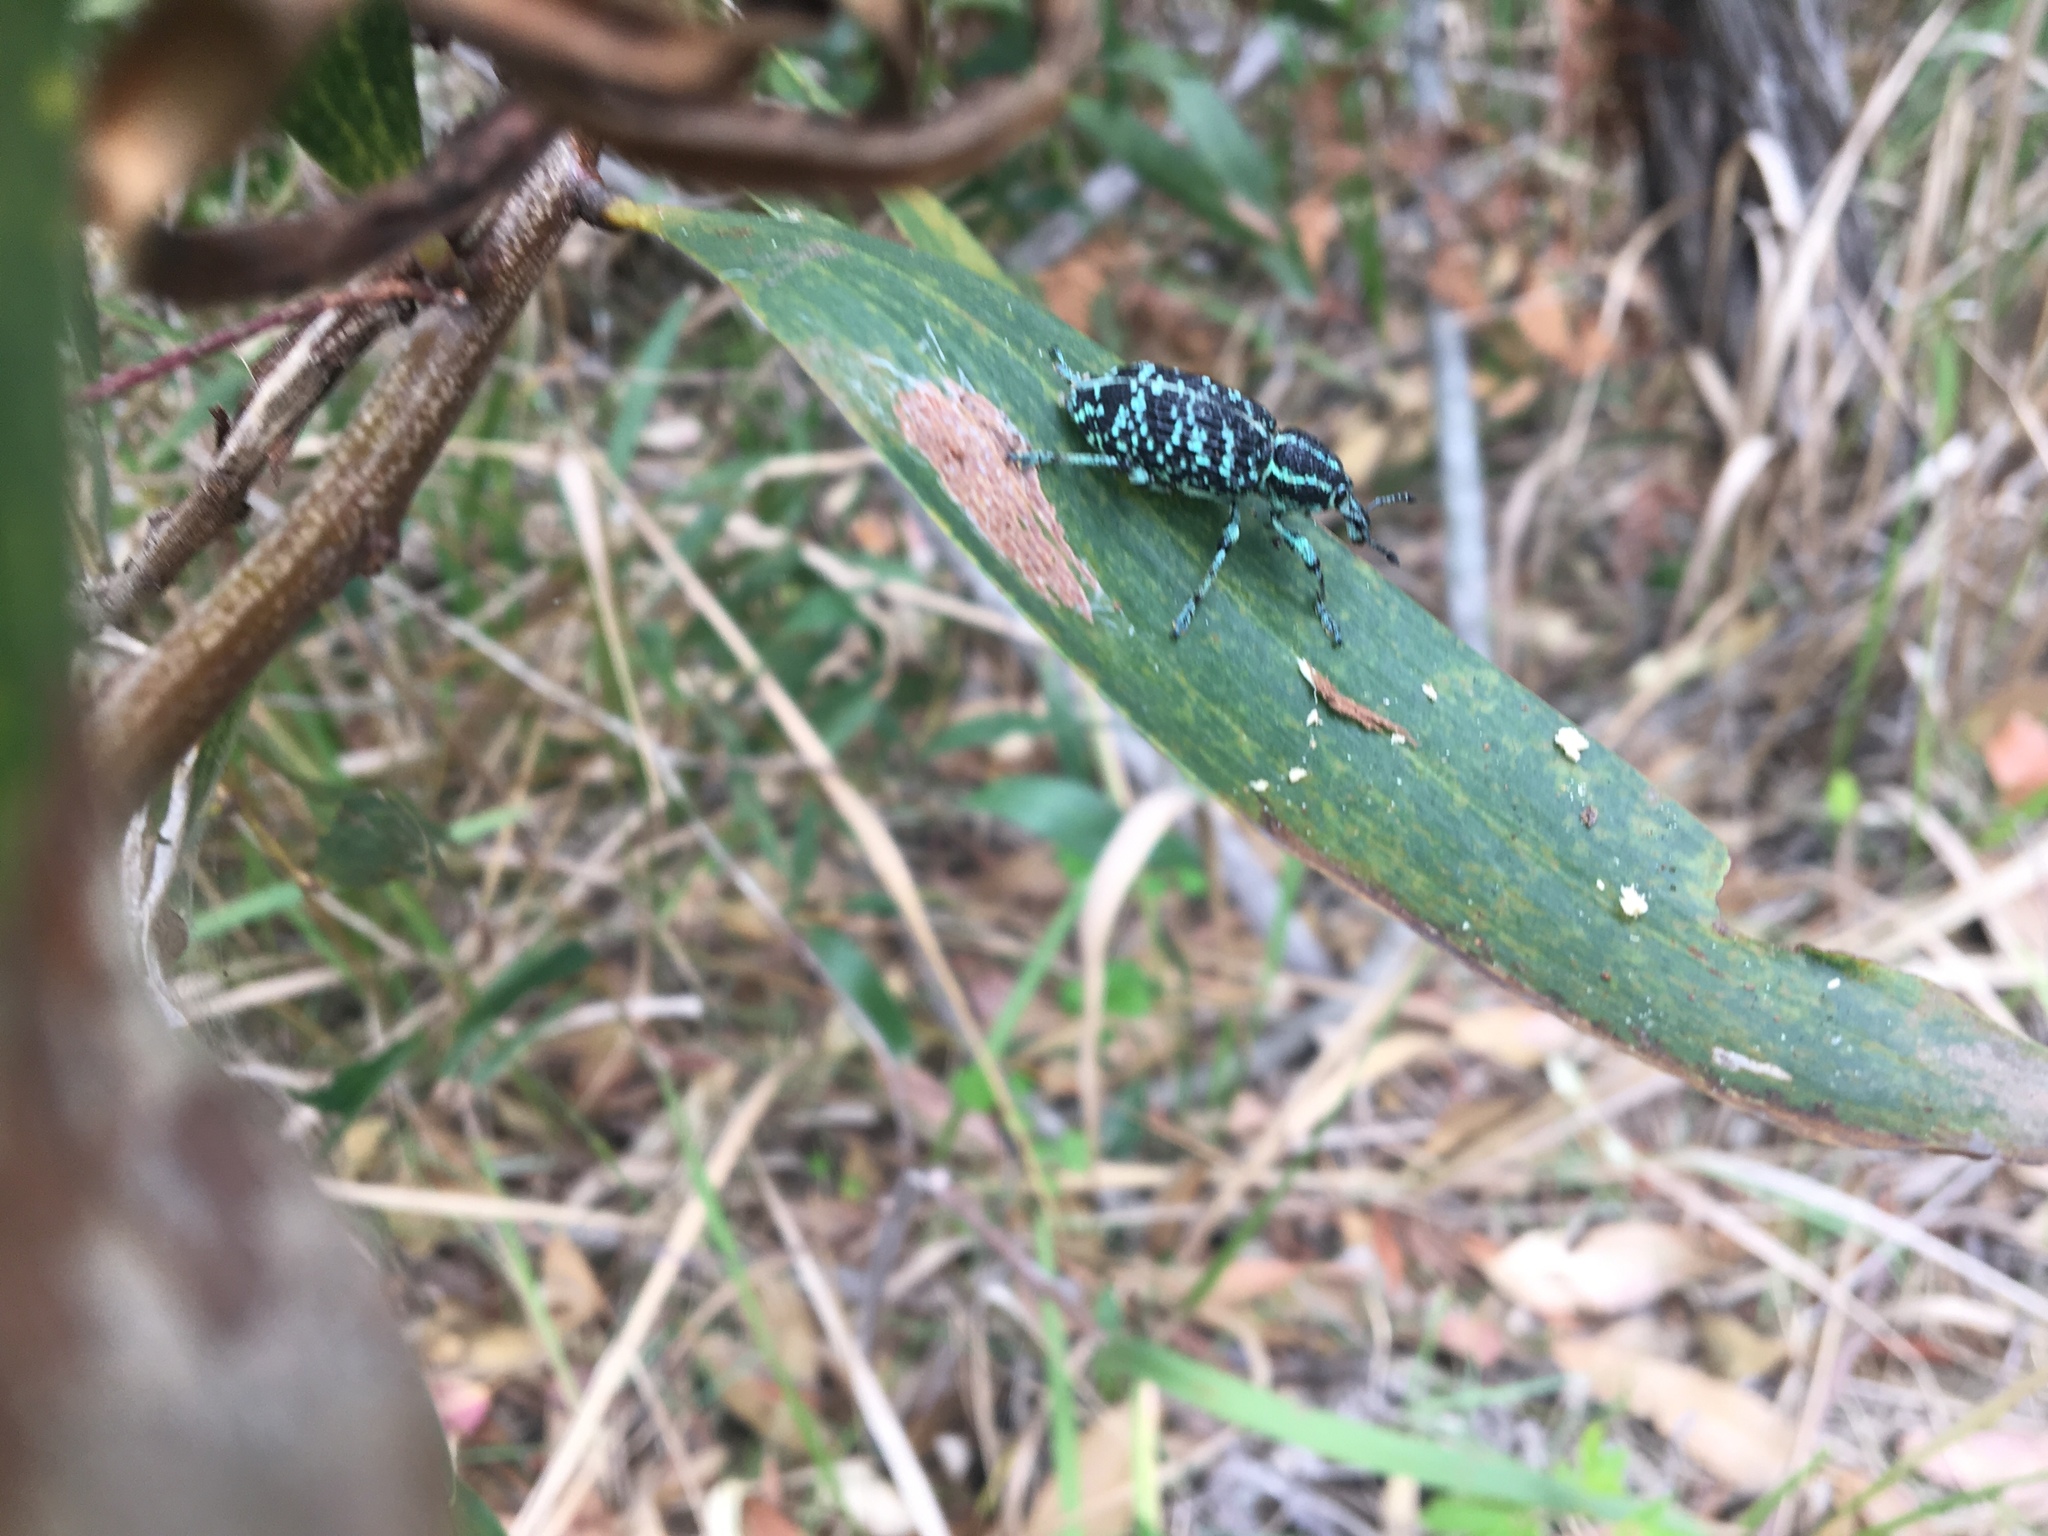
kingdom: Animalia
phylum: Arthropoda
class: Insecta
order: Coleoptera
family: Curculionidae
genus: Chrysolopus
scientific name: Chrysolopus spectabilis
